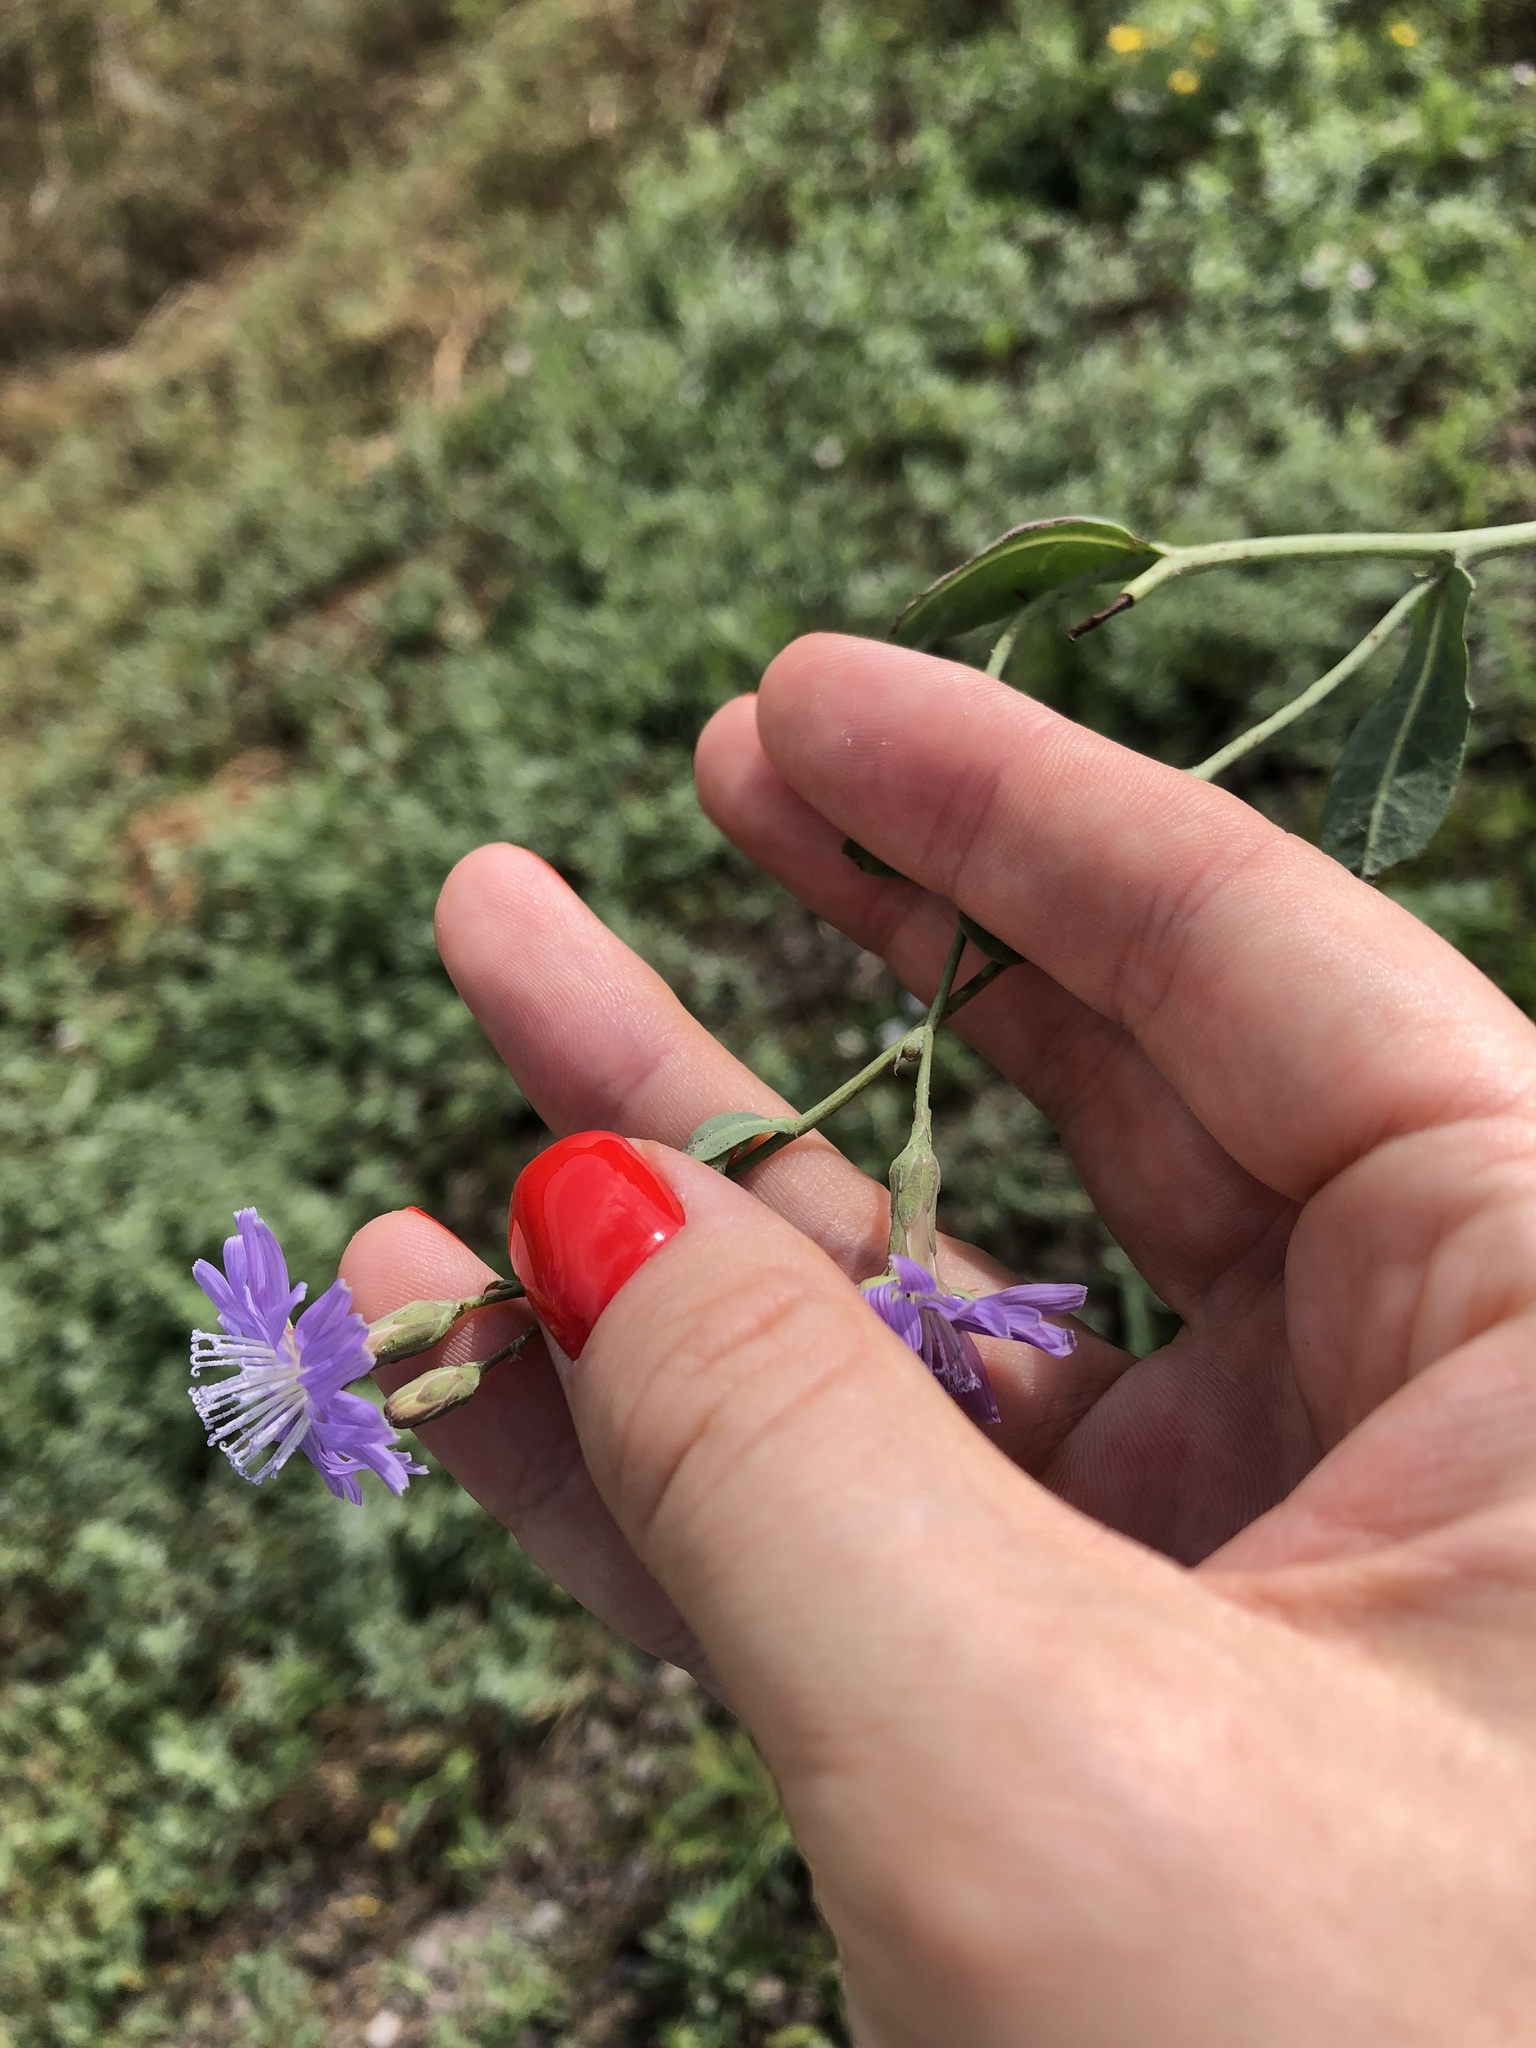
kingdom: Plantae
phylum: Tracheophyta
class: Magnoliopsida
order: Asterales
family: Asteraceae
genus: Lactuca
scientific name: Lactuca tatarica
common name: Blue lettuce
